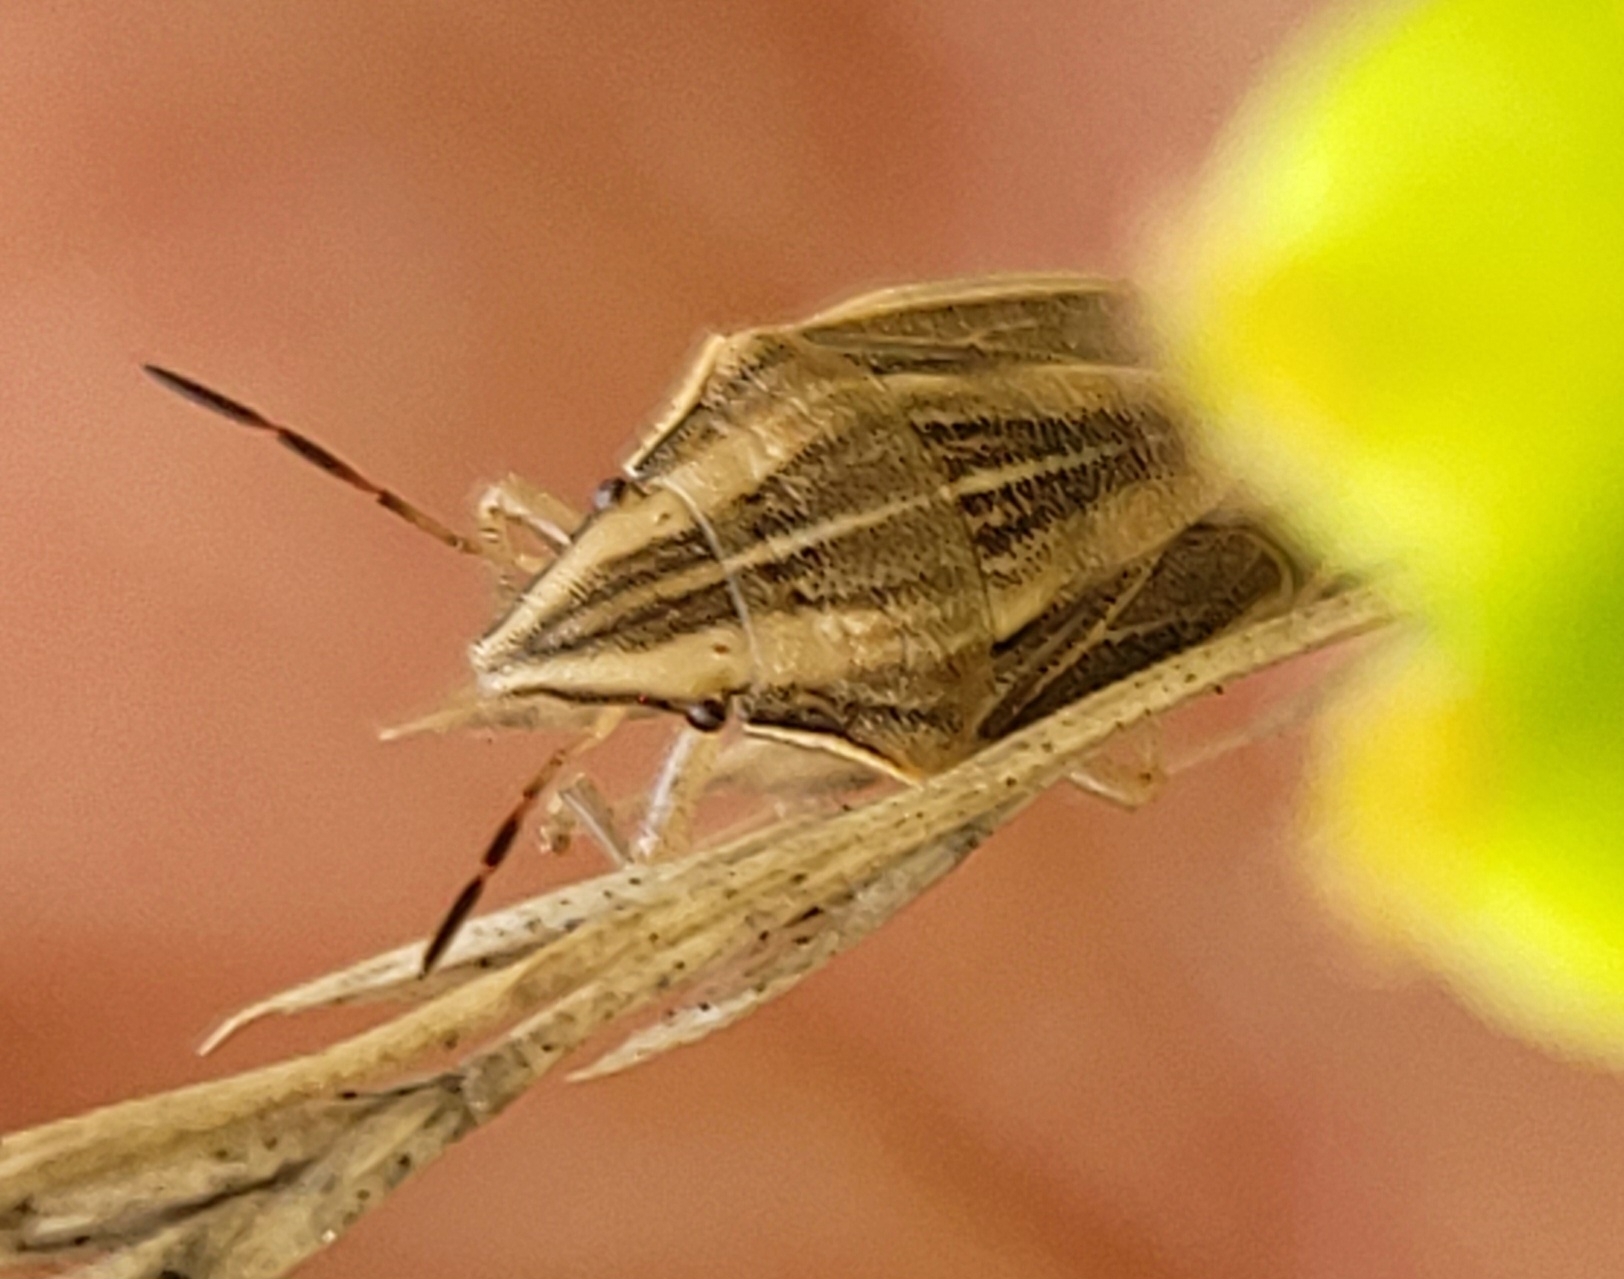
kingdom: Animalia
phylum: Arthropoda
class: Insecta
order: Hemiptera
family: Pentatomidae
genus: Aelia
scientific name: Aelia acuminata
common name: Bishop's mitre
